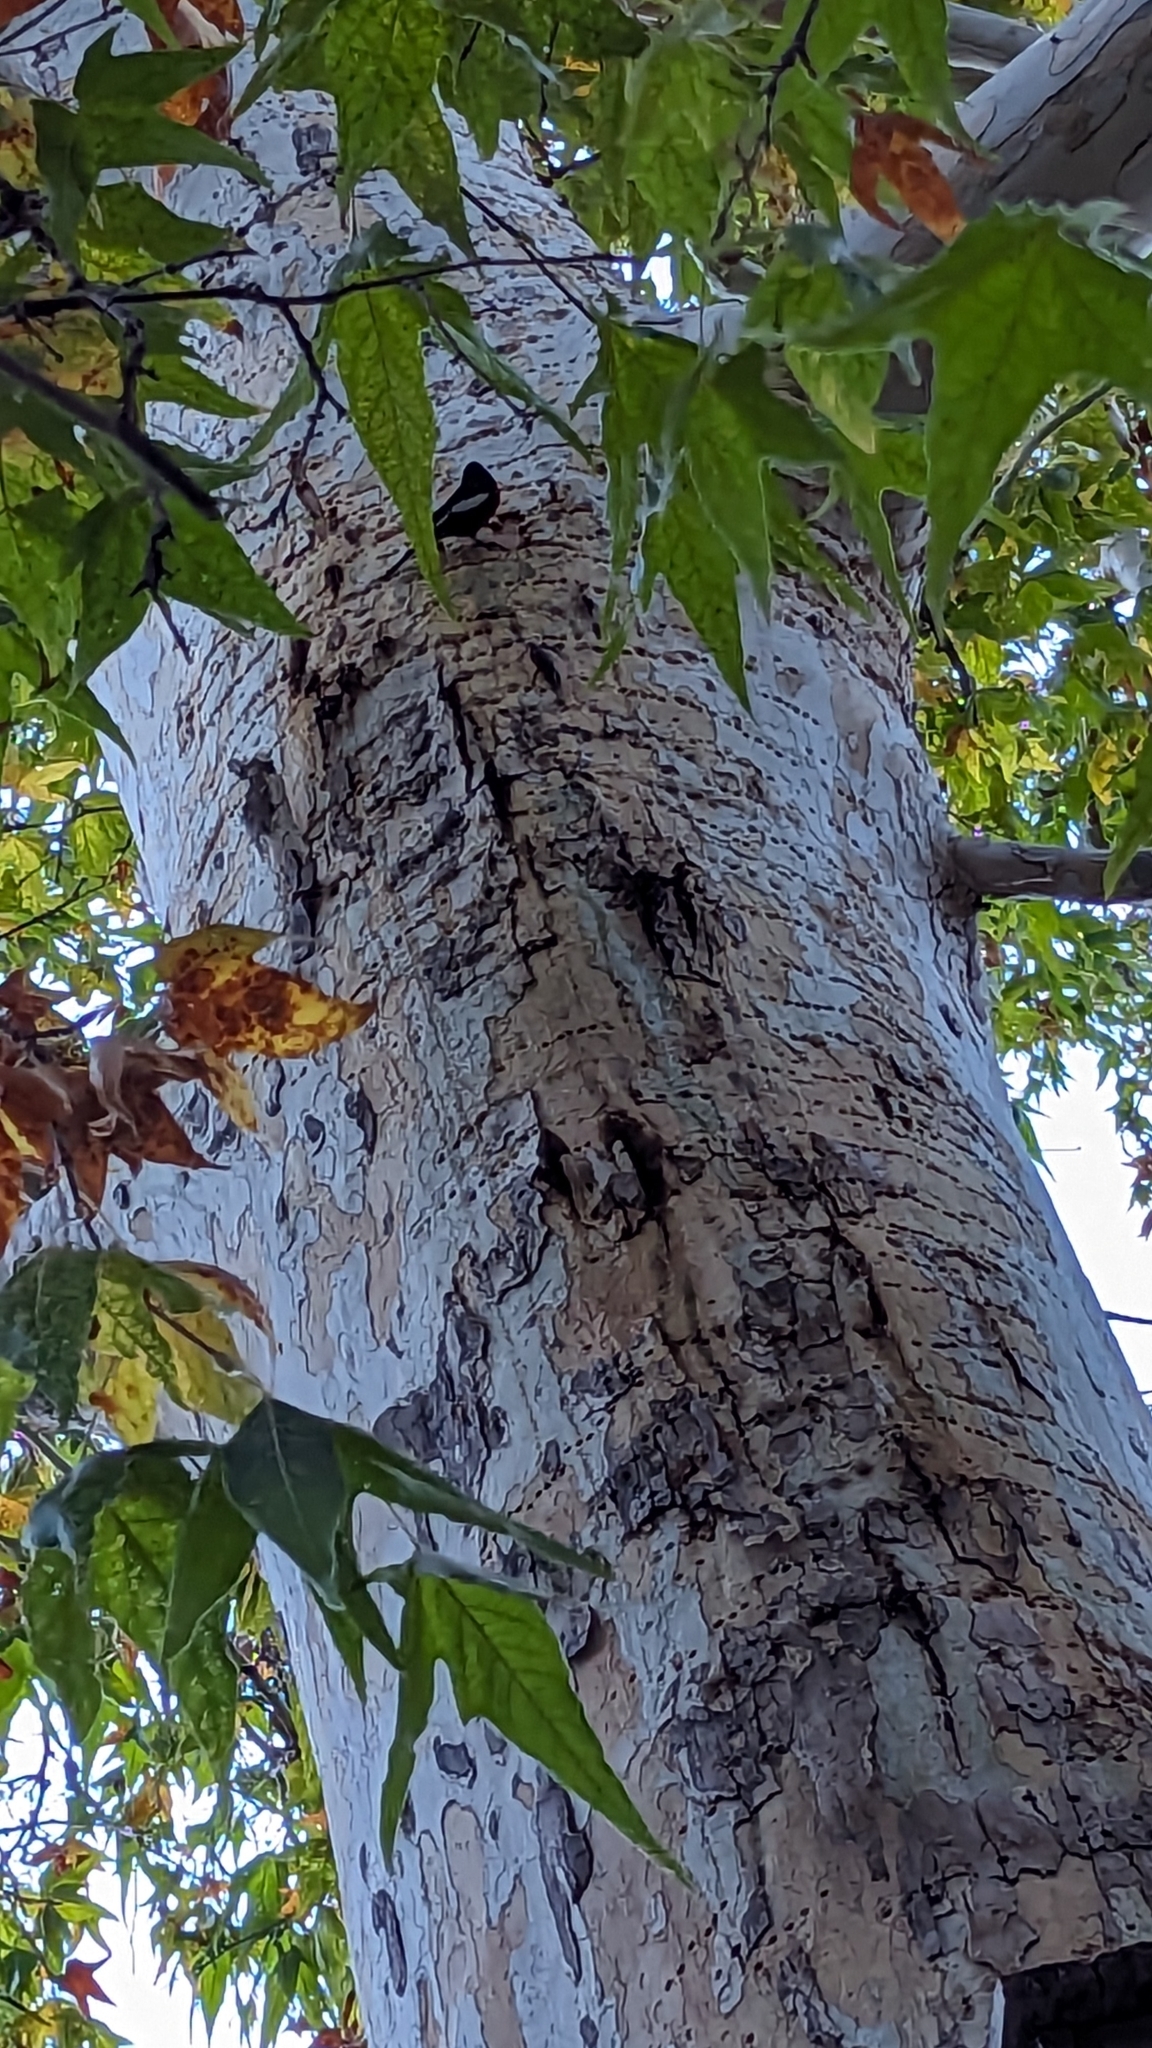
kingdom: Animalia
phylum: Chordata
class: Aves
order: Passeriformes
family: Parulidae
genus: Myioborus
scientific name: Myioborus pictus
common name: Painted whitestart
